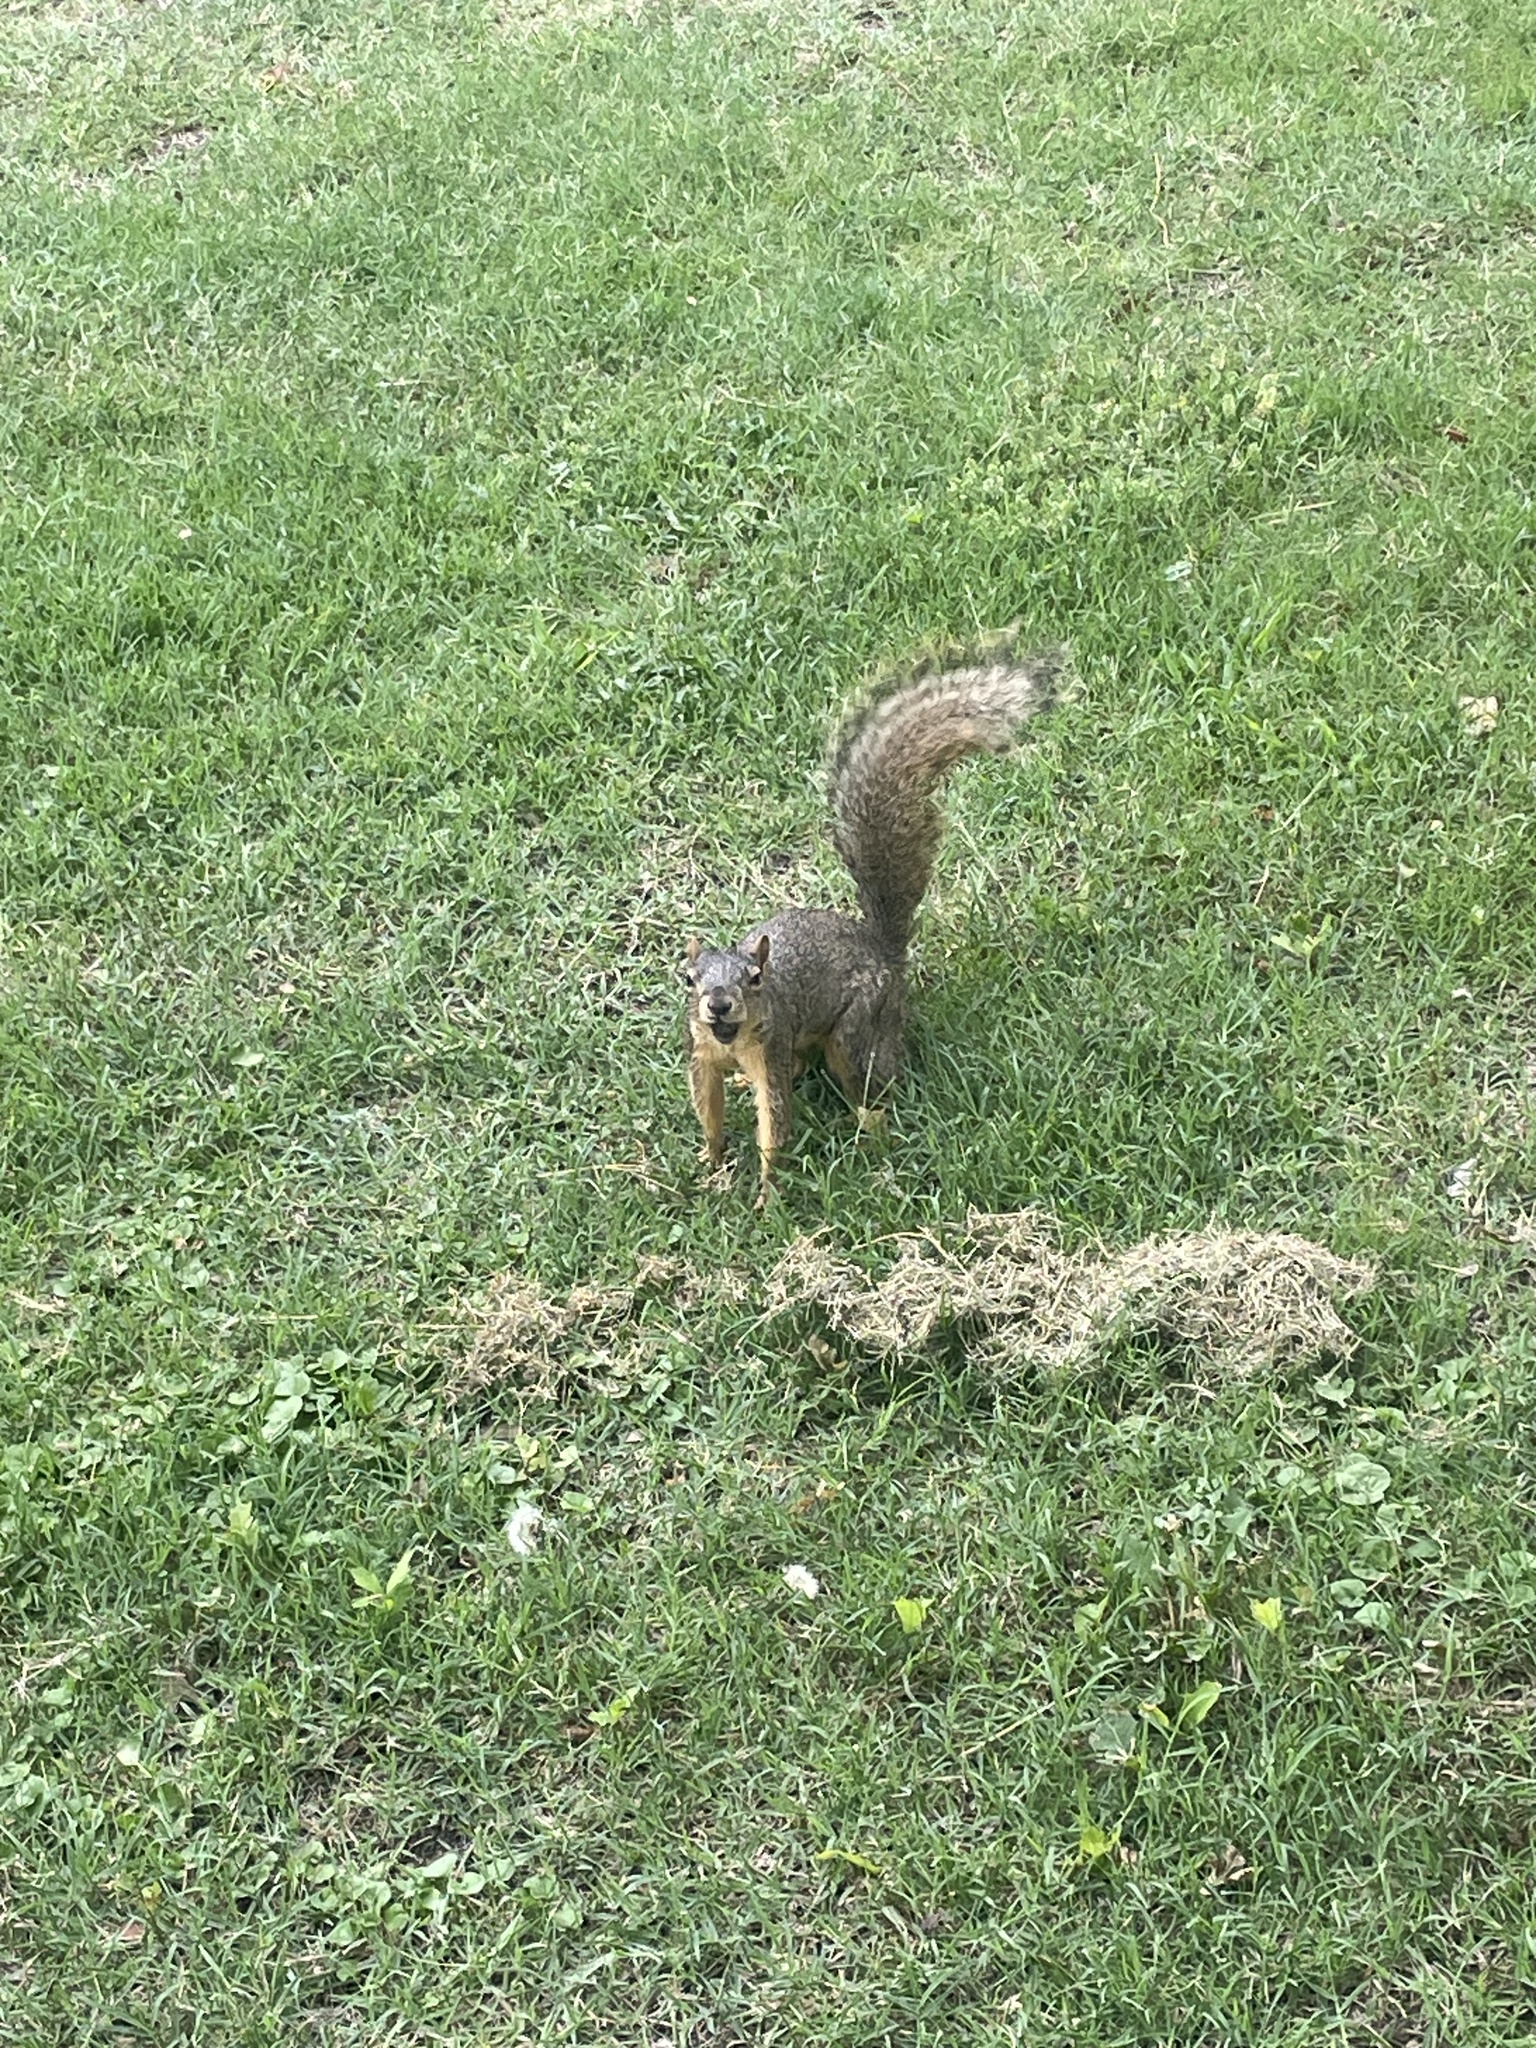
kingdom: Animalia
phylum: Chordata
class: Mammalia
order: Rodentia
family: Sciuridae
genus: Sciurus
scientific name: Sciurus niger
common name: Fox squirrel
